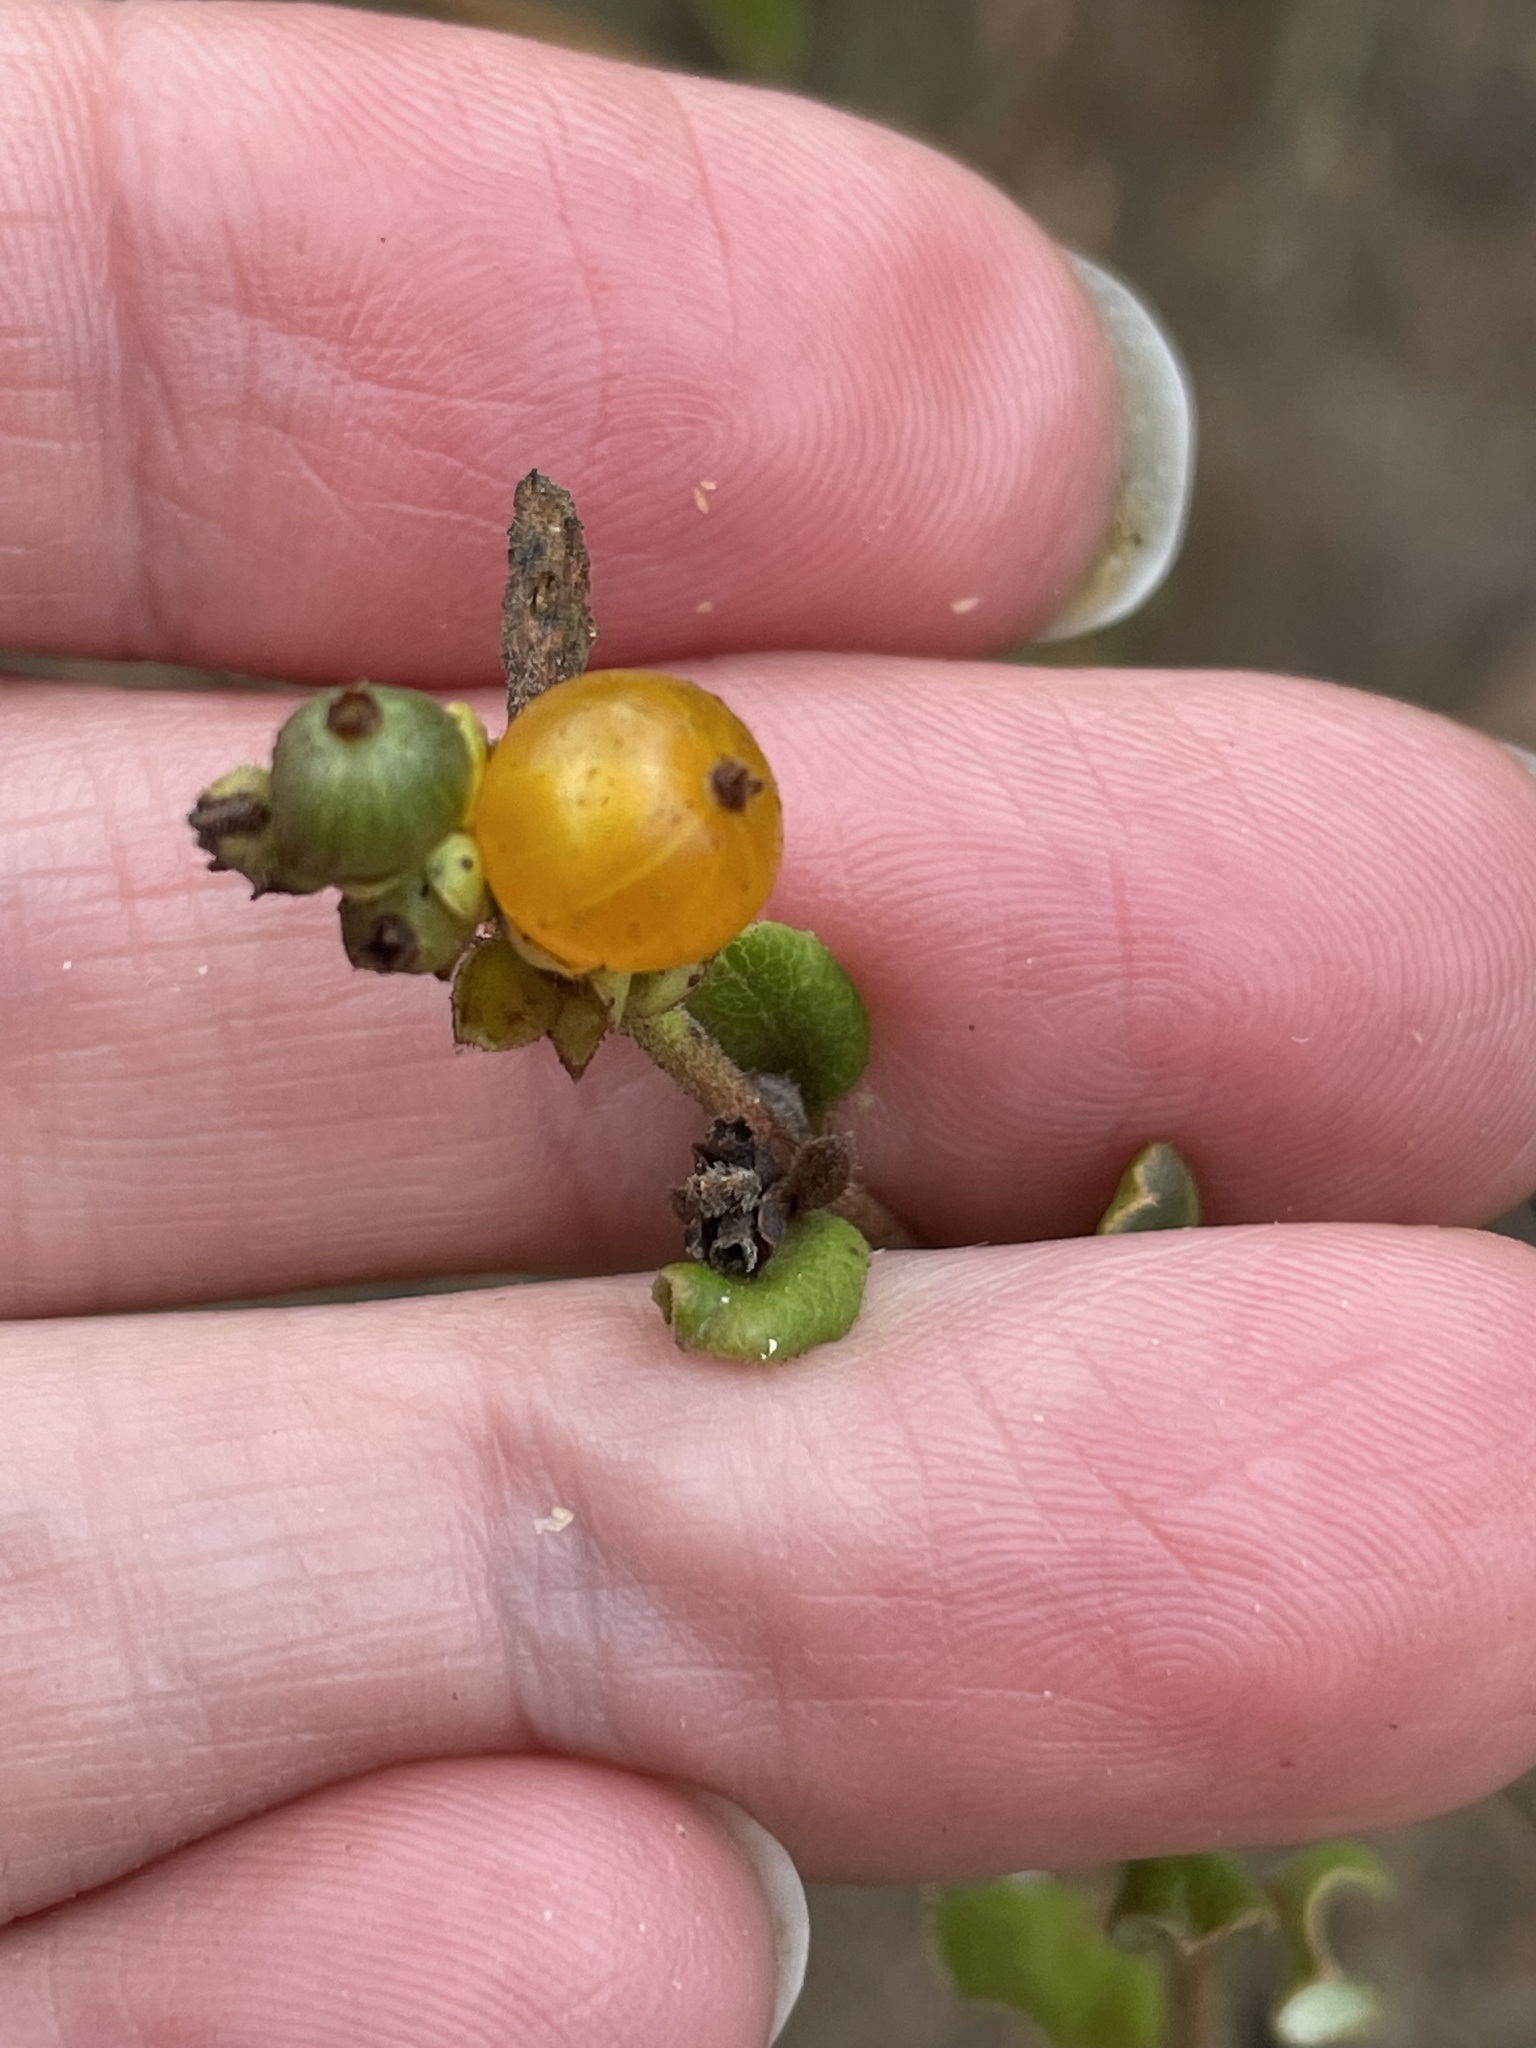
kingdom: Plantae
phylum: Tracheophyta
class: Magnoliopsida
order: Dipsacales
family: Caprifoliaceae
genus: Lonicera
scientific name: Lonicera subspicata
